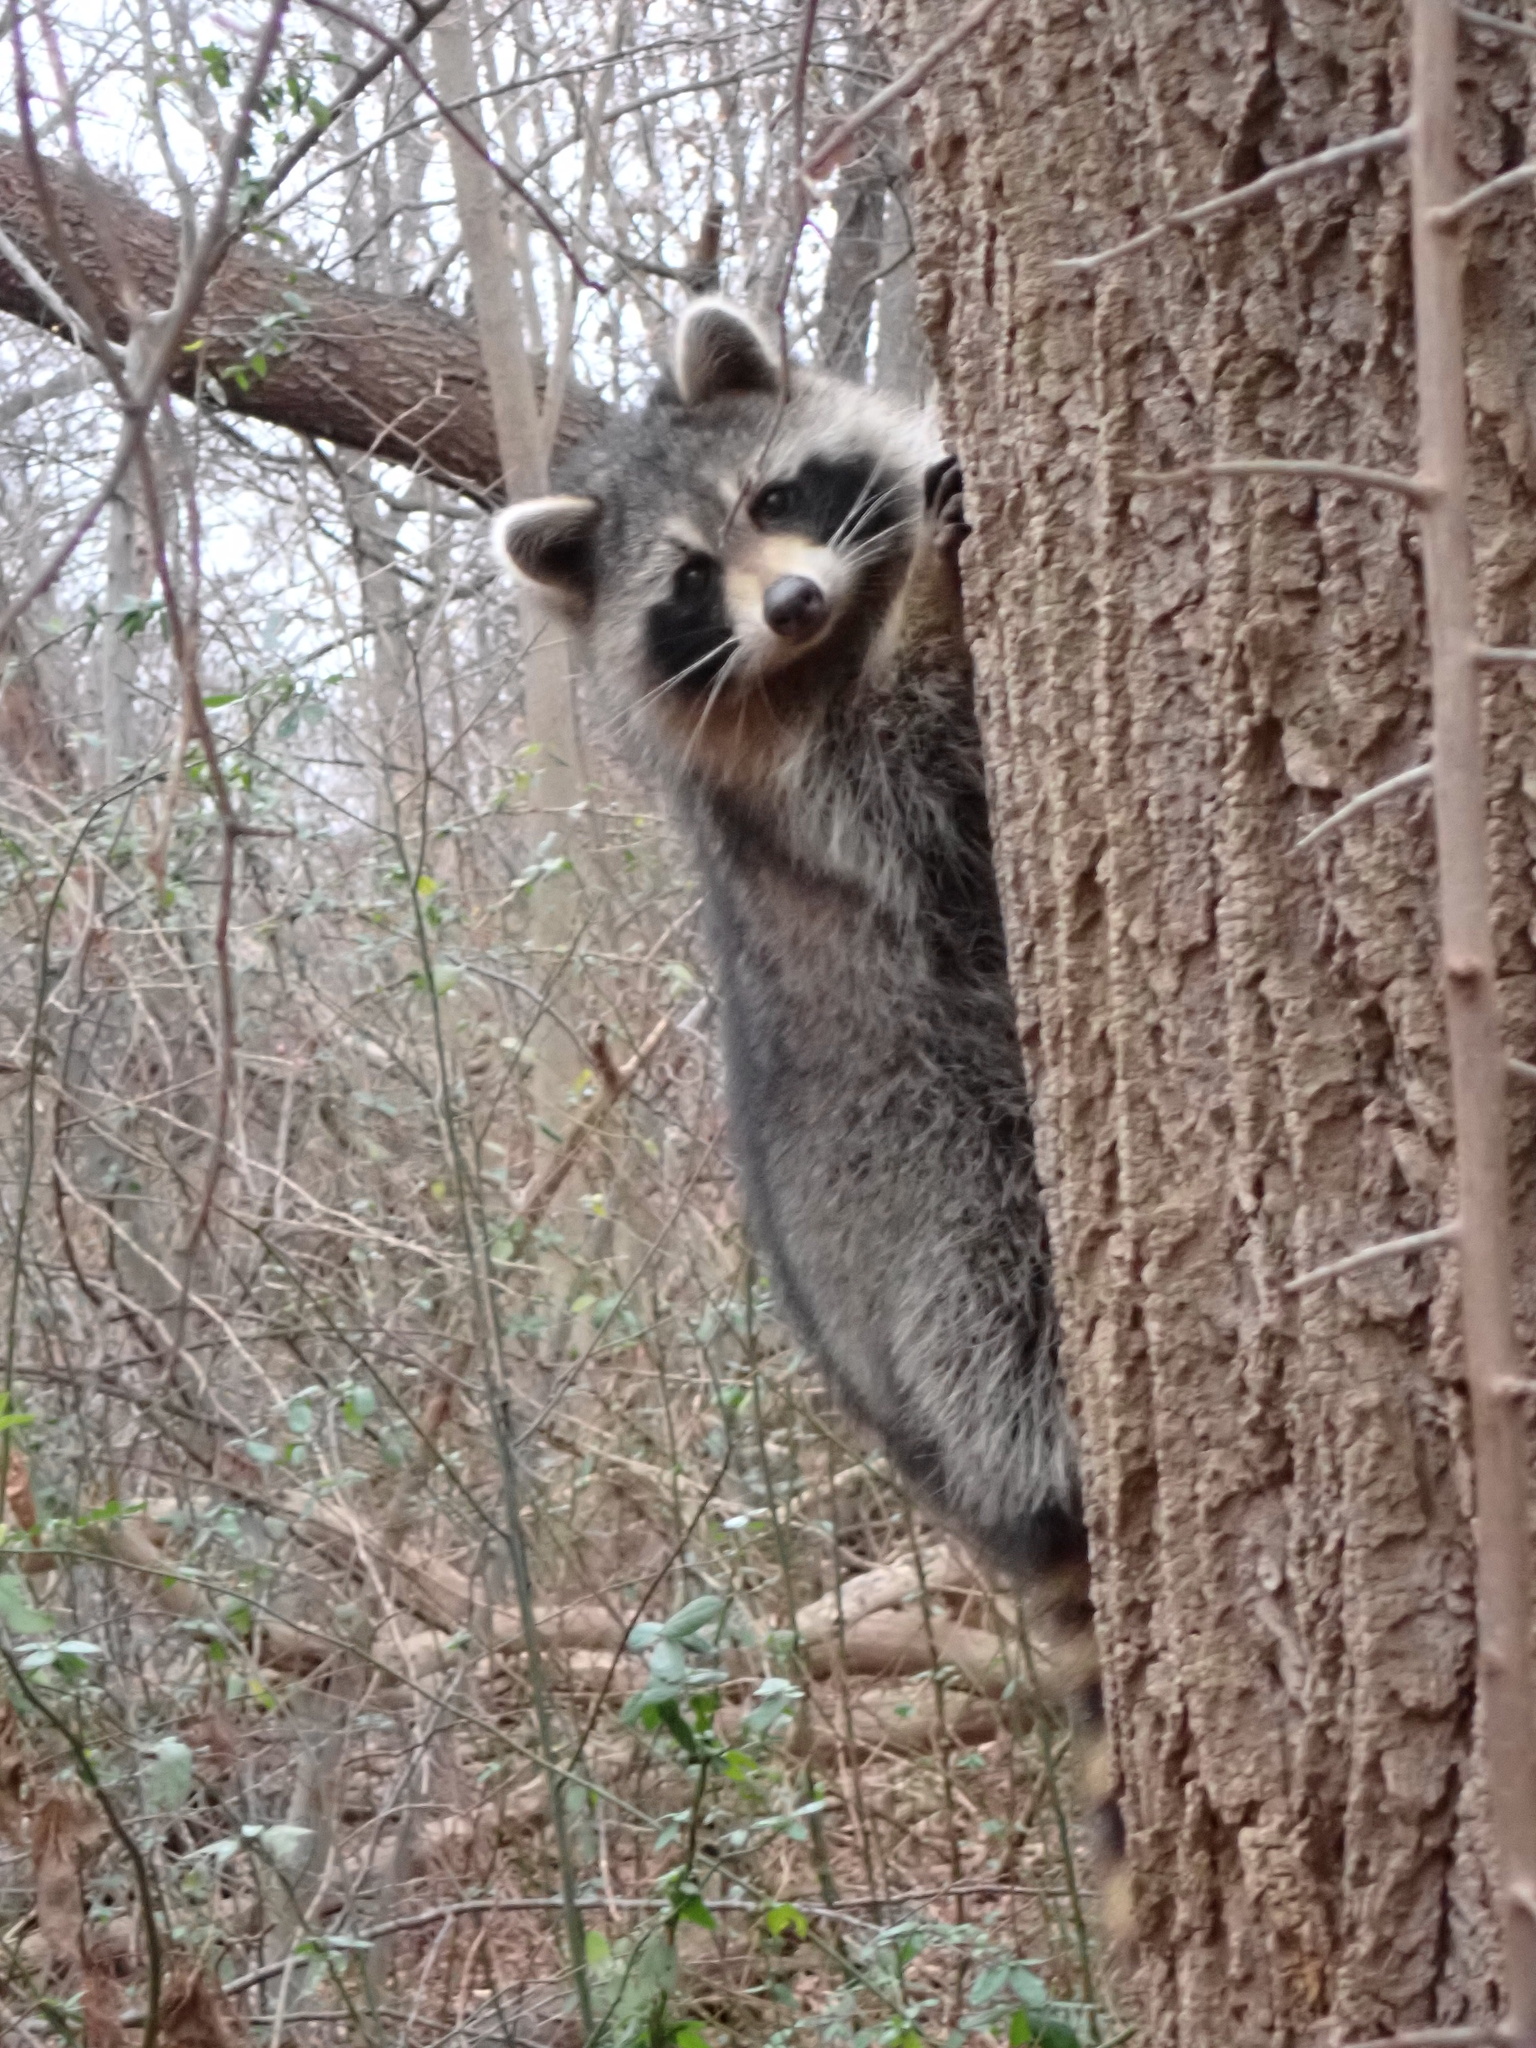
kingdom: Animalia
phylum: Chordata
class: Mammalia
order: Carnivora
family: Procyonidae
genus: Procyon
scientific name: Procyon lotor
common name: Raccoon
